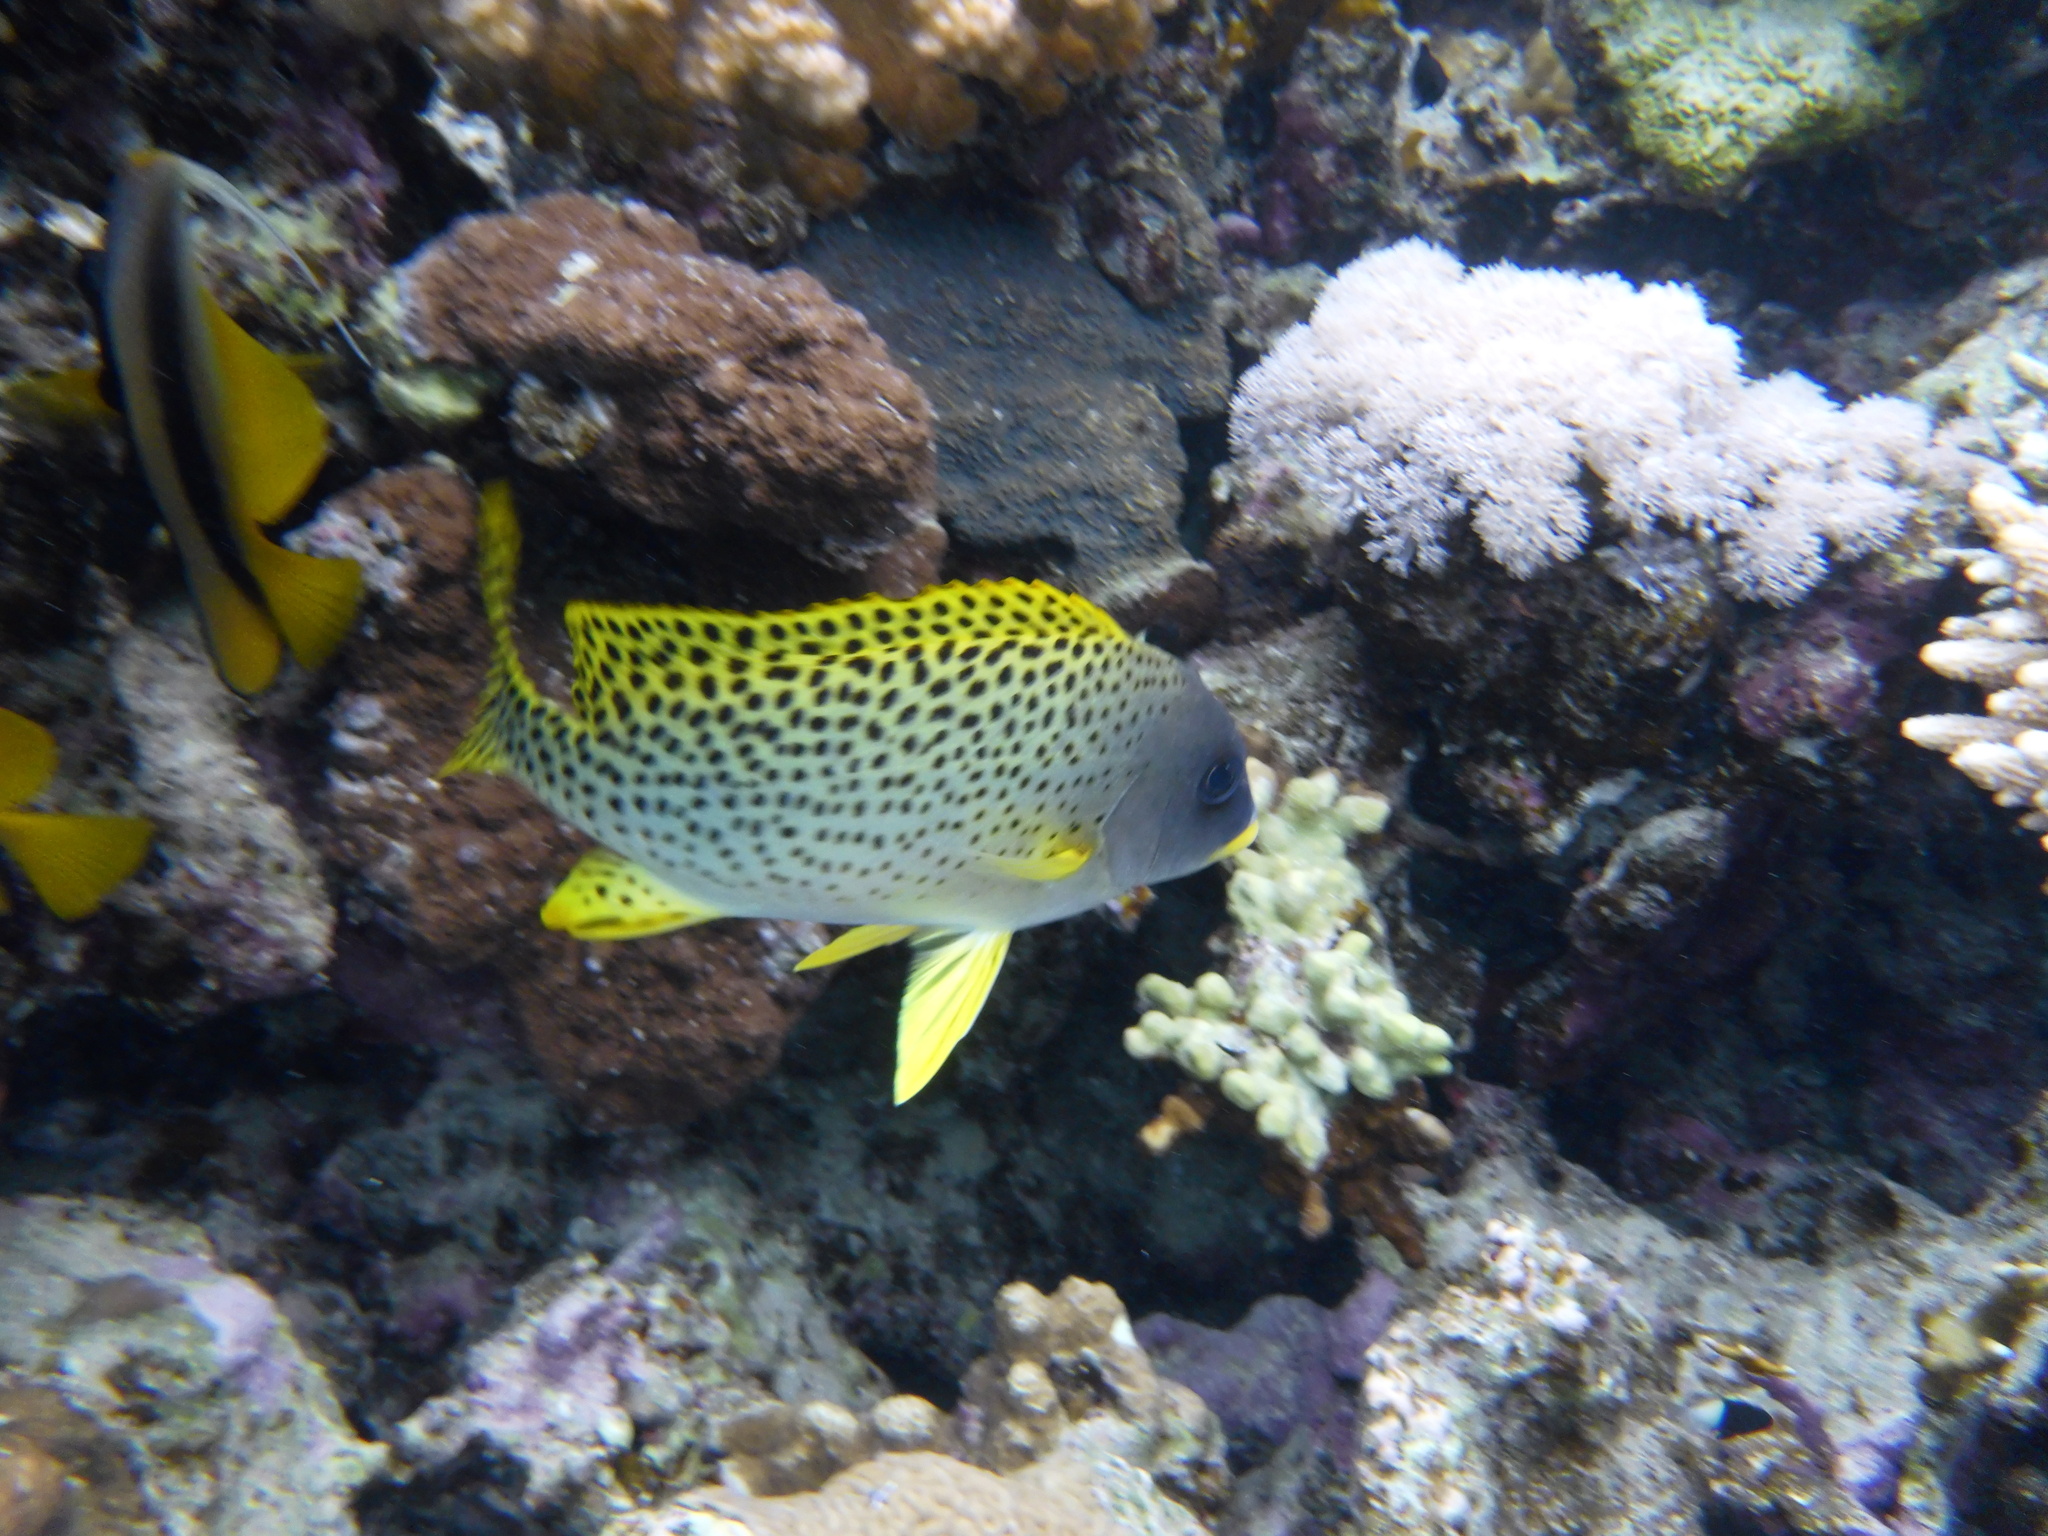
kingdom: Animalia
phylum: Chordata
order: Perciformes
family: Haemulidae
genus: Plectorhinchus
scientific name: Plectorhinchus gaterinus
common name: Blackspotted rubberlip
